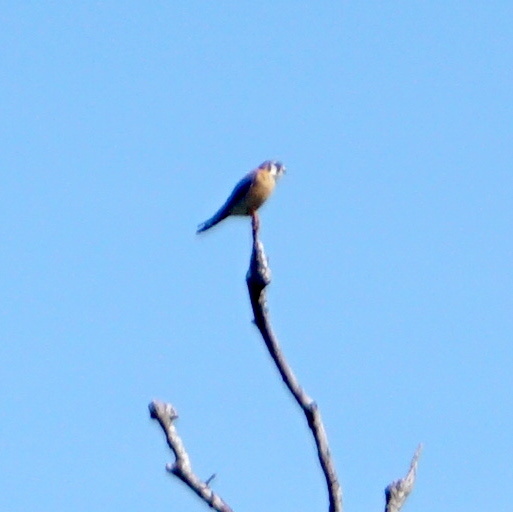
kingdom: Animalia
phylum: Chordata
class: Aves
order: Falconiformes
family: Falconidae
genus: Falco
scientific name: Falco sparverius
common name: American kestrel
